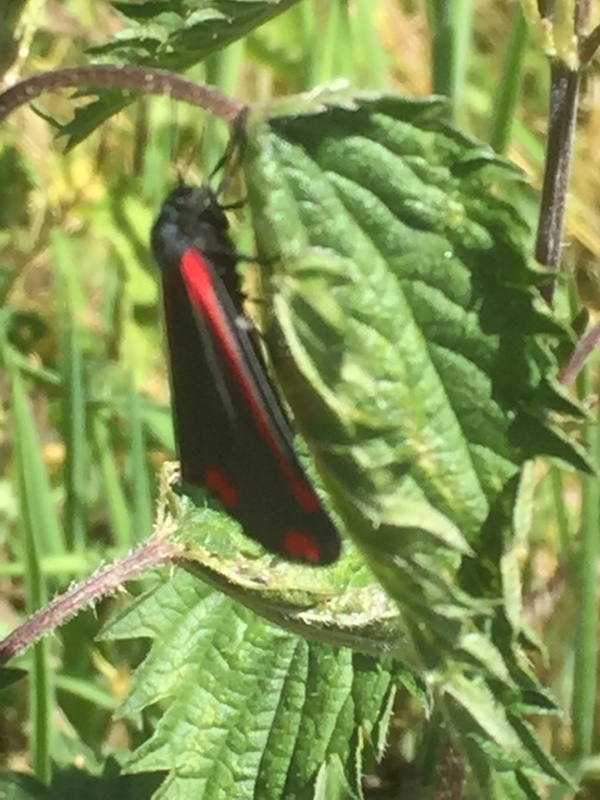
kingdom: Animalia
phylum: Arthropoda
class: Insecta
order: Lepidoptera
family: Erebidae
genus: Tyria
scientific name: Tyria jacobaeae
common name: Cinnabar
